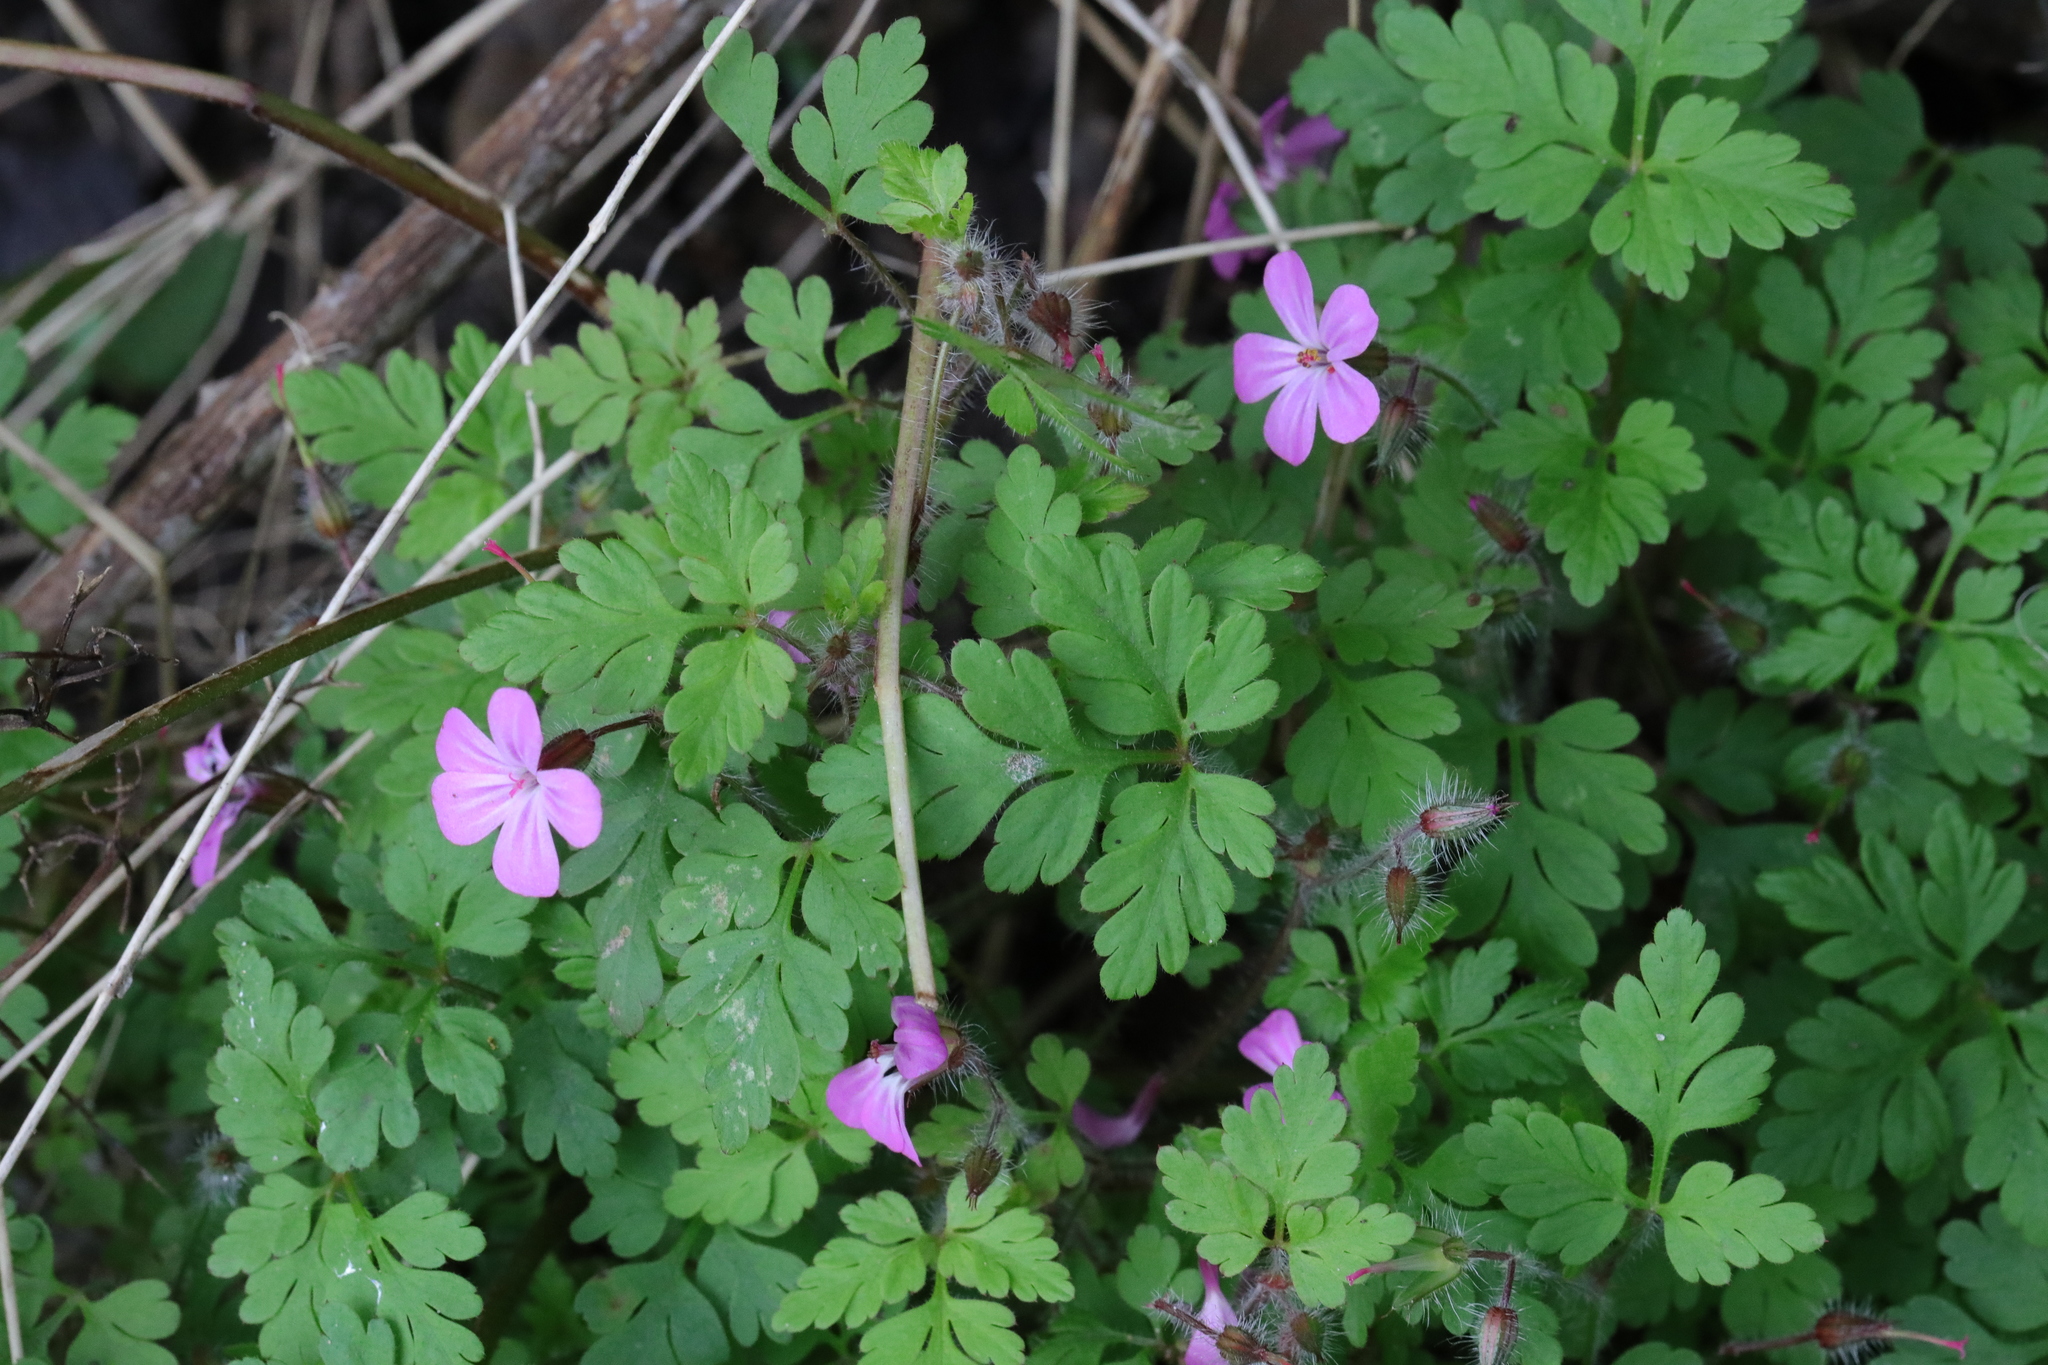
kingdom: Plantae
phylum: Tracheophyta
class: Magnoliopsida
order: Geraniales
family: Geraniaceae
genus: Geranium
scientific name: Geranium robertianum
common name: Herb-robert
